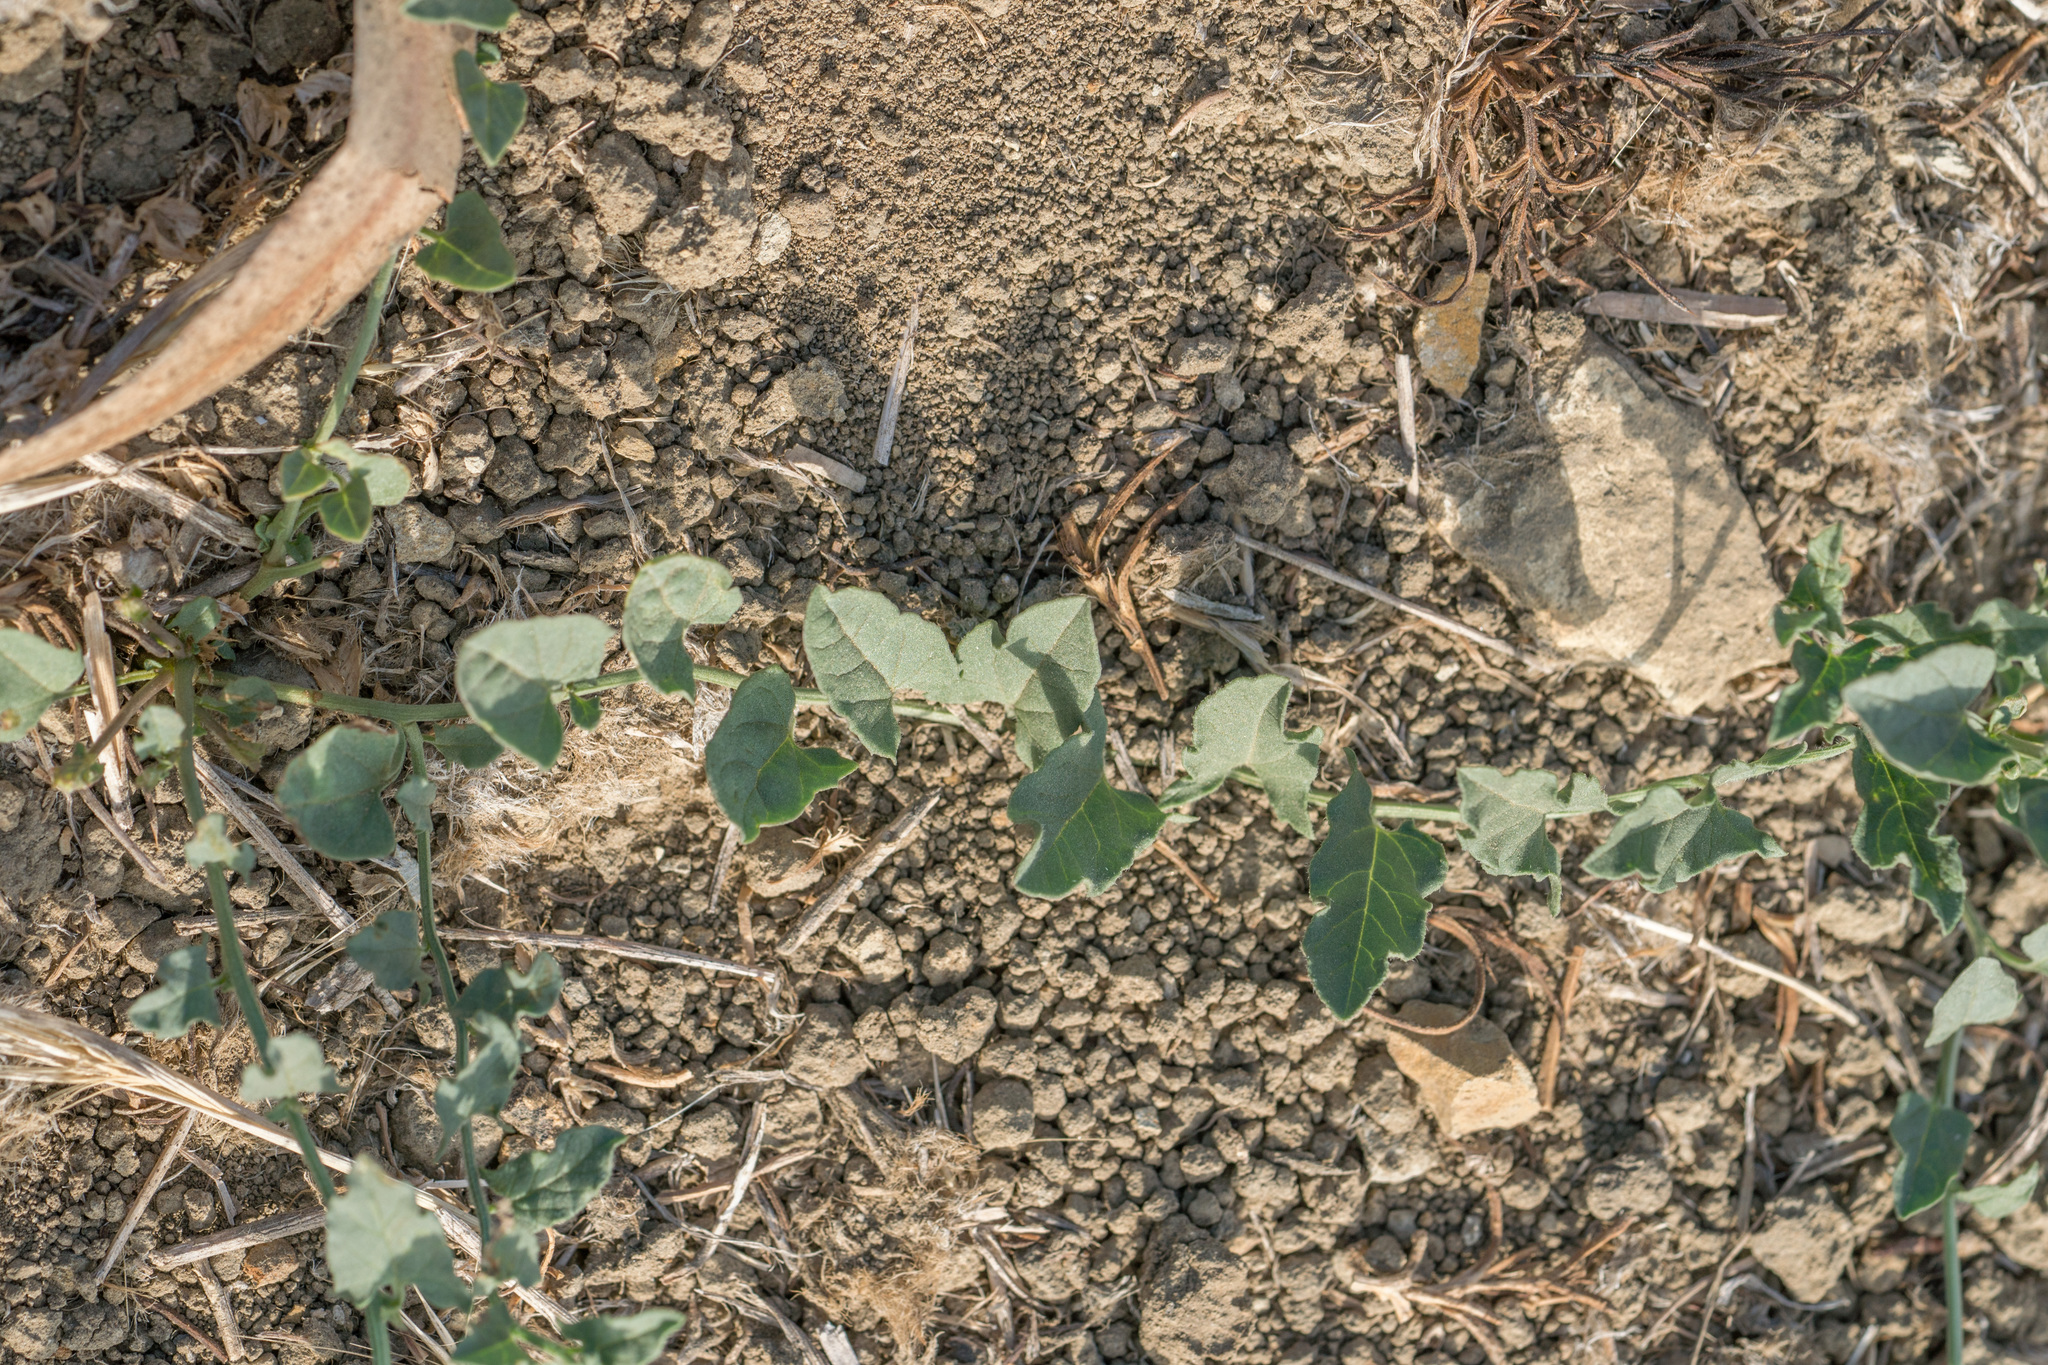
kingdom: Plantae
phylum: Tracheophyta
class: Magnoliopsida
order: Solanales
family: Convolvulaceae
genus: Convolvulus
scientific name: Convolvulus arvensis
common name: Field bindweed
